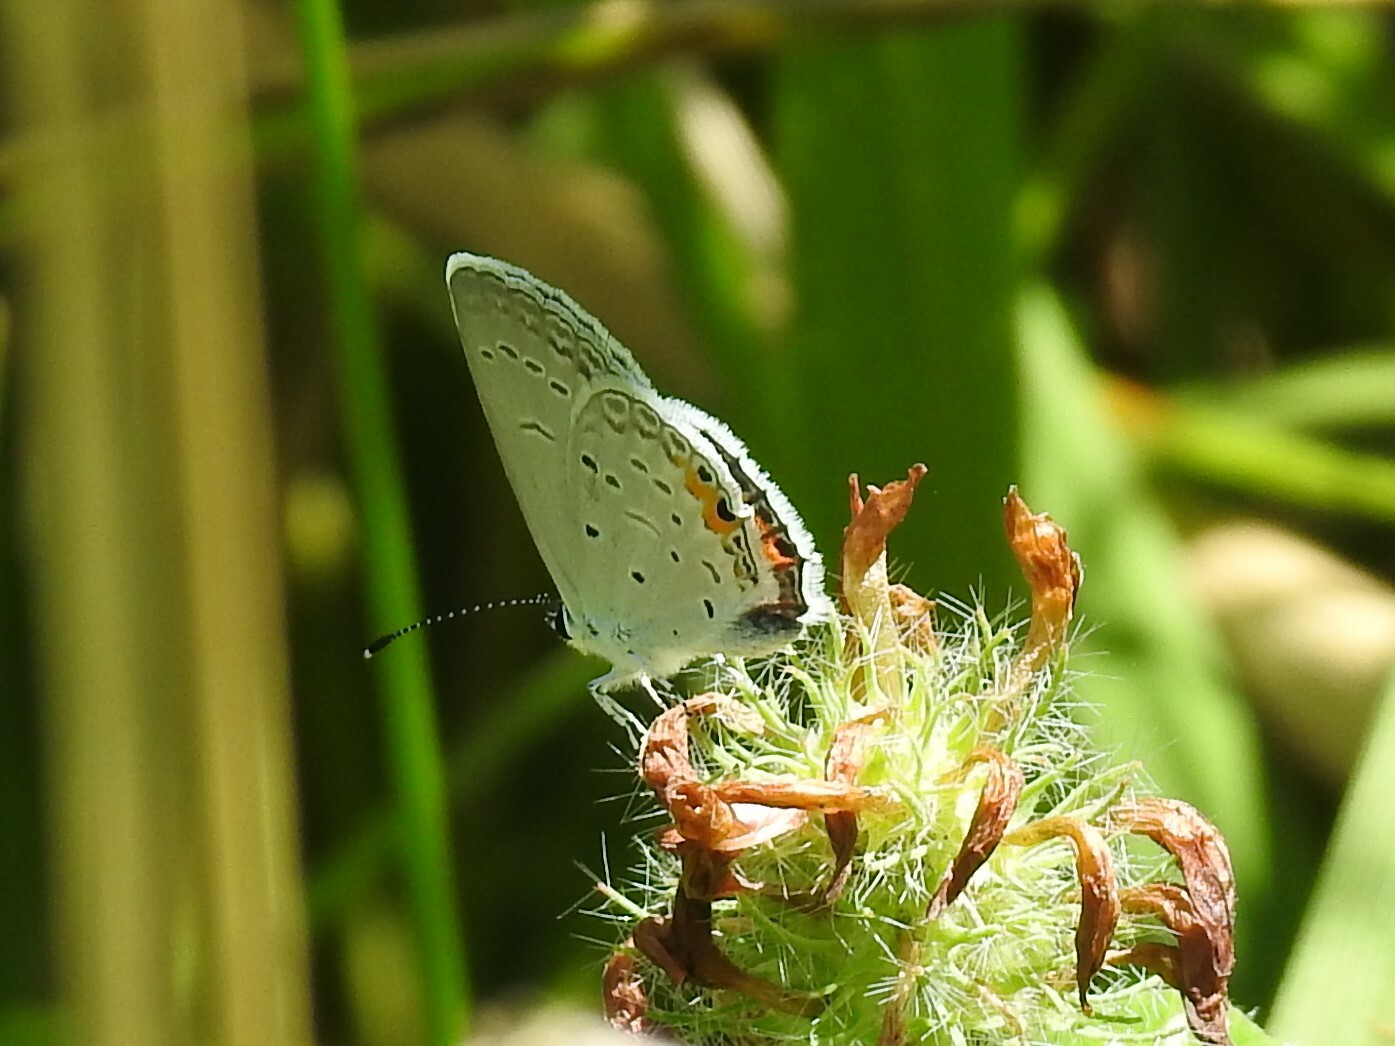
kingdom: Animalia
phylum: Arthropoda
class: Insecta
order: Lepidoptera
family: Lycaenidae
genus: Elkalyce
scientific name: Elkalyce comyntas
